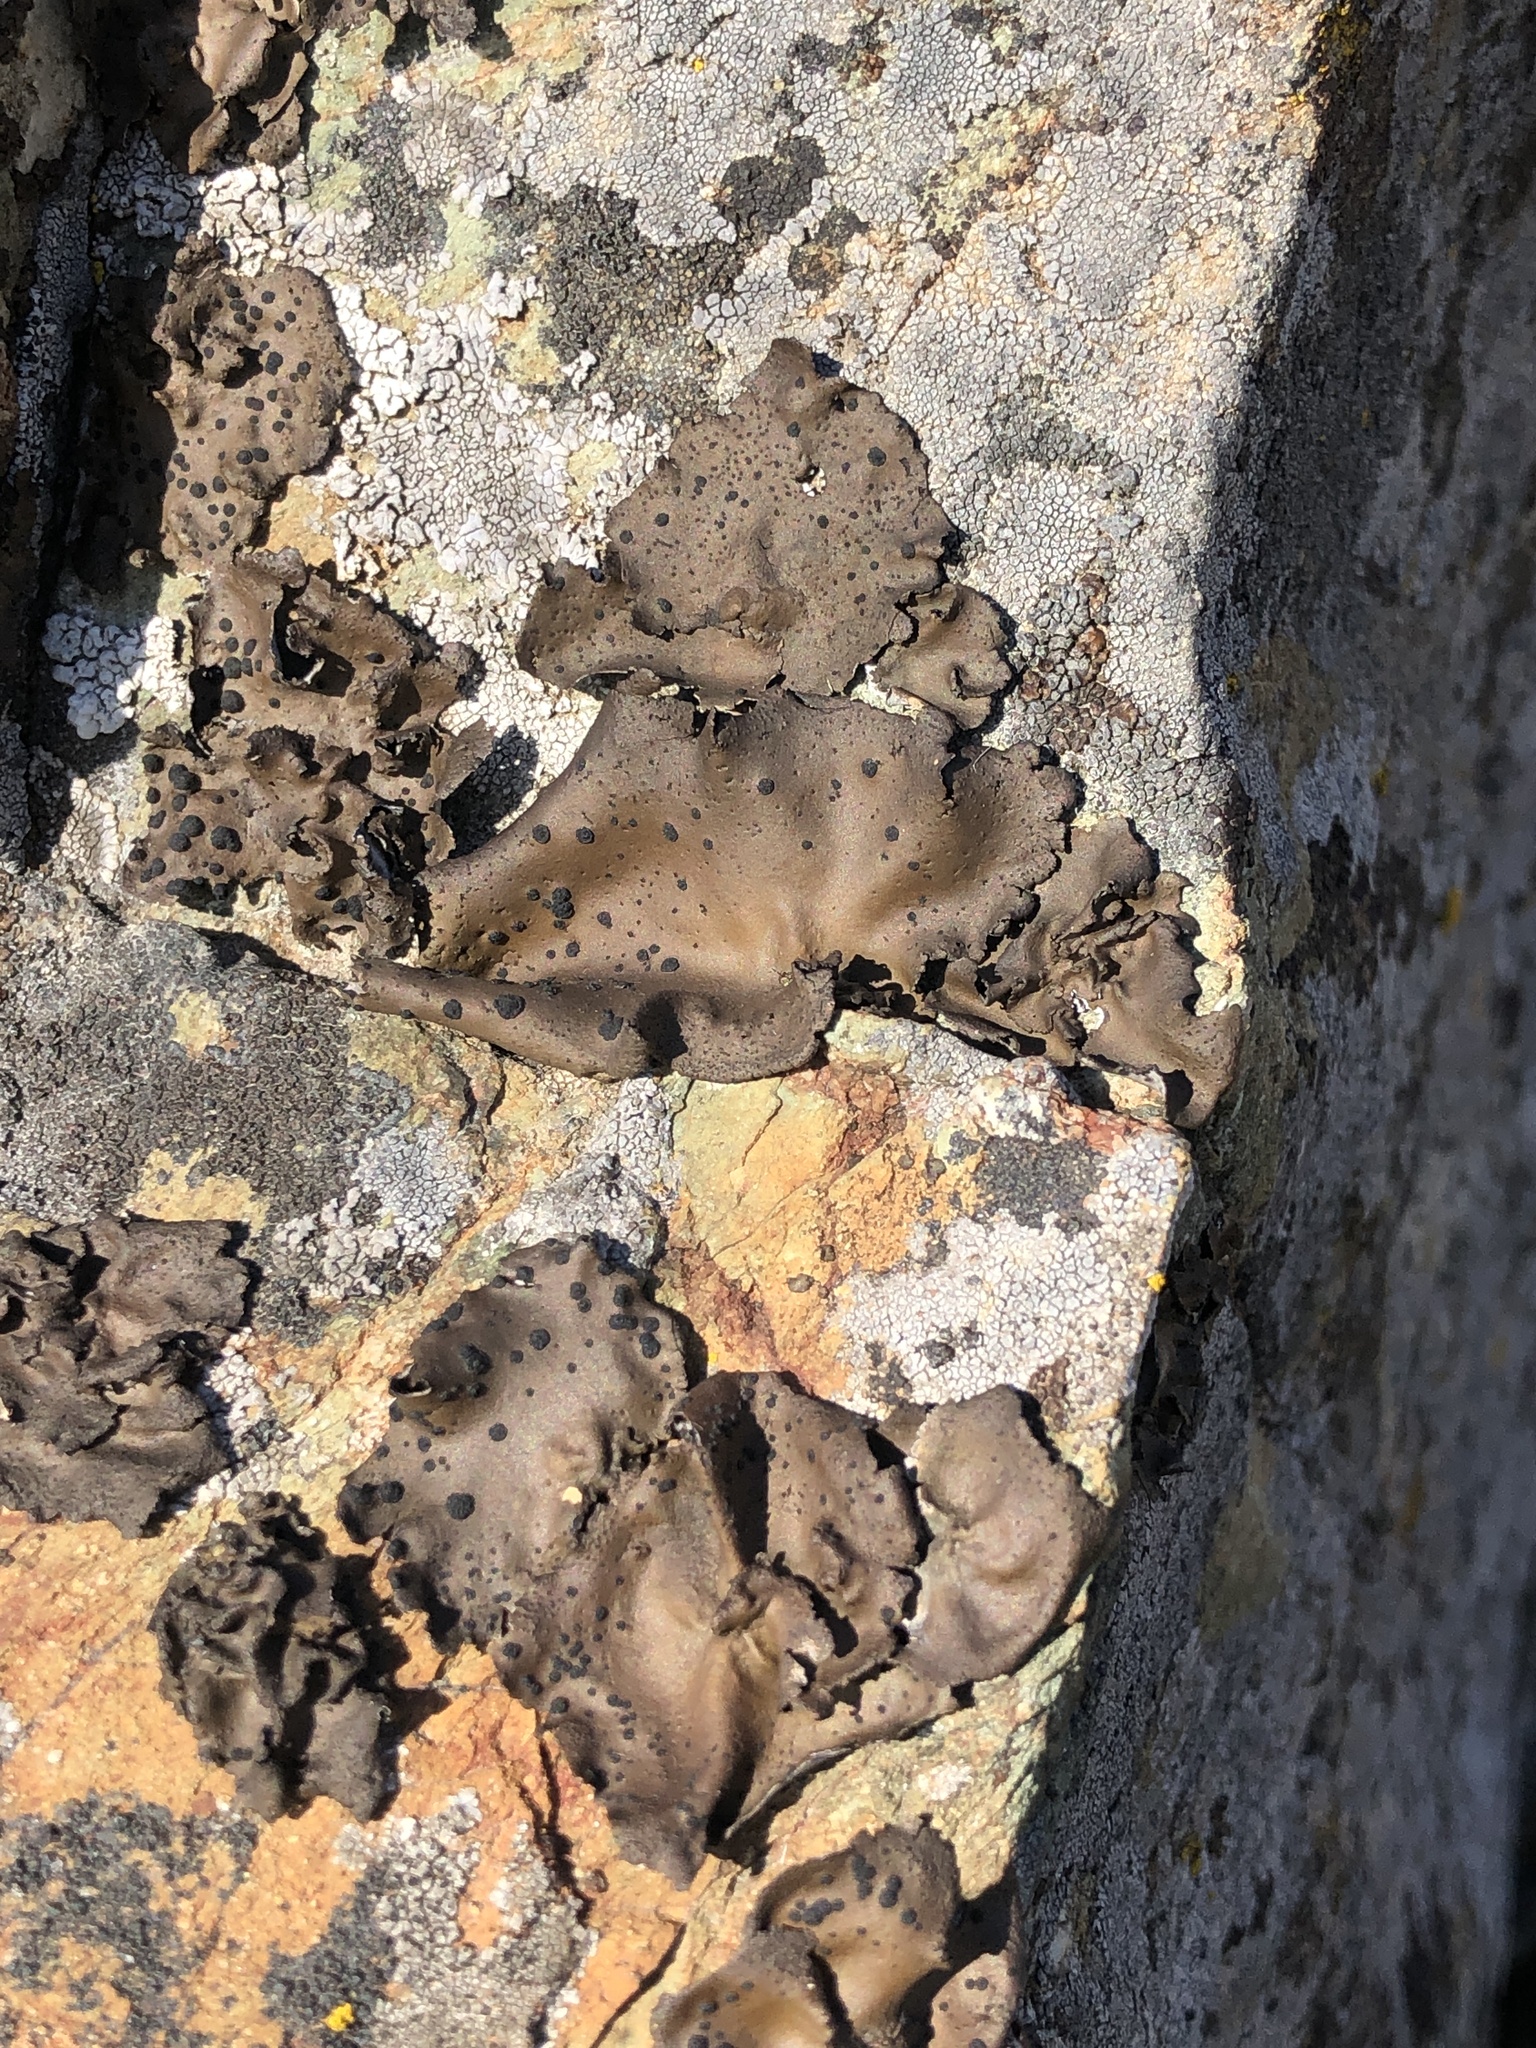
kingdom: Fungi
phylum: Ascomycota
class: Lecanoromycetes
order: Umbilicariales
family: Umbilicariaceae
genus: Umbilicaria
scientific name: Umbilicaria phaea
